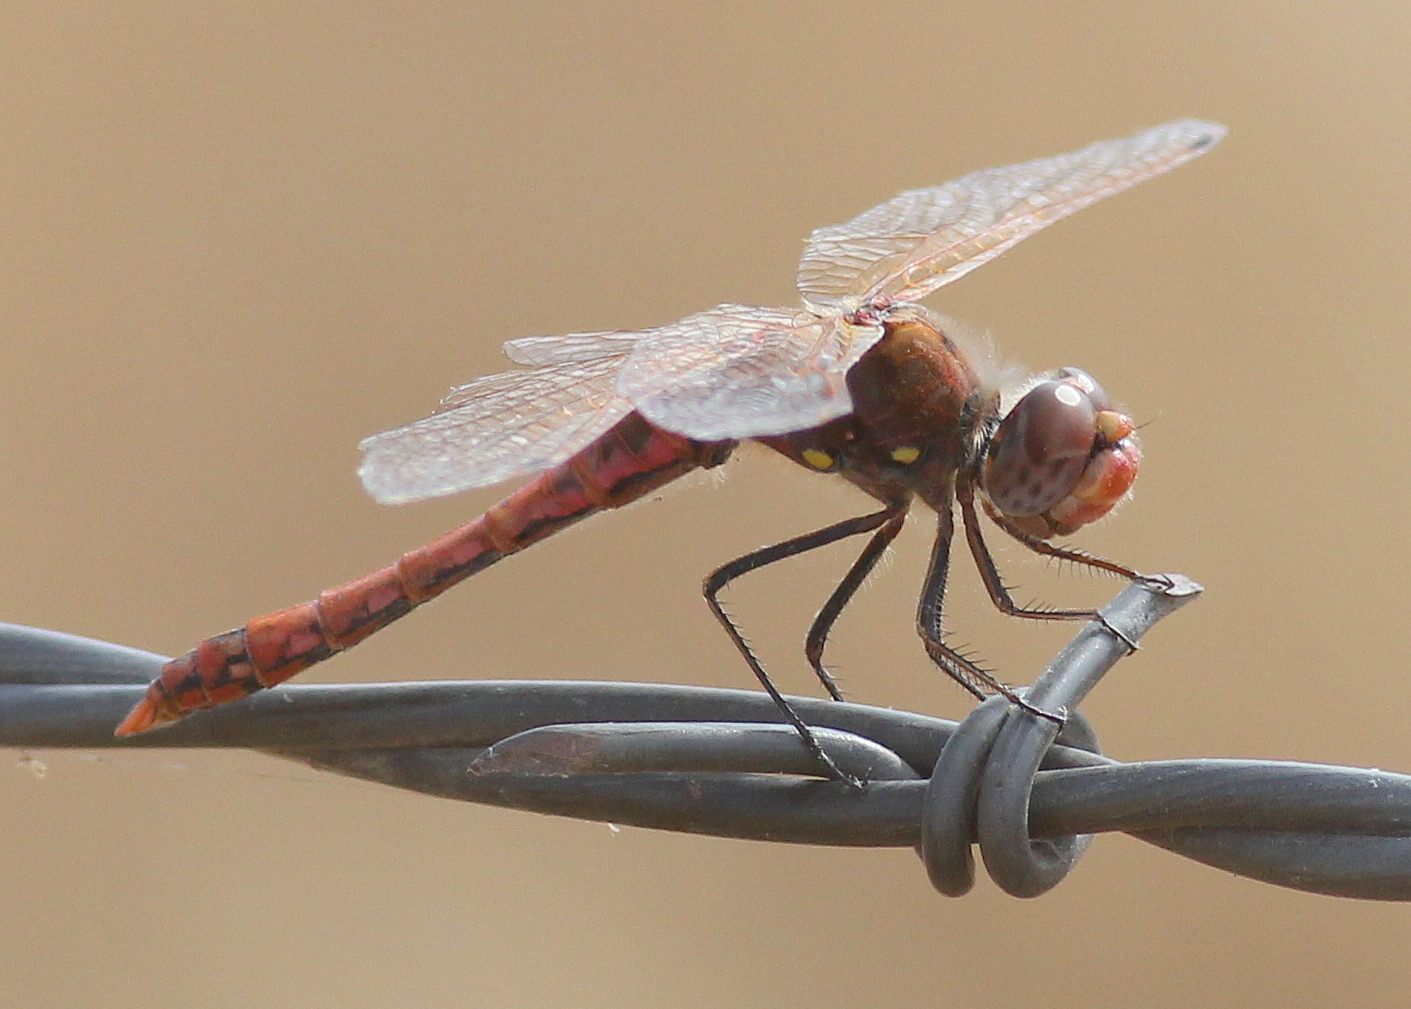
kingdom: Animalia
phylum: Arthropoda
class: Insecta
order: Odonata
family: Libellulidae
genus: Sympetrum
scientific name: Sympetrum corruptum
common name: Variegated meadowhawk
